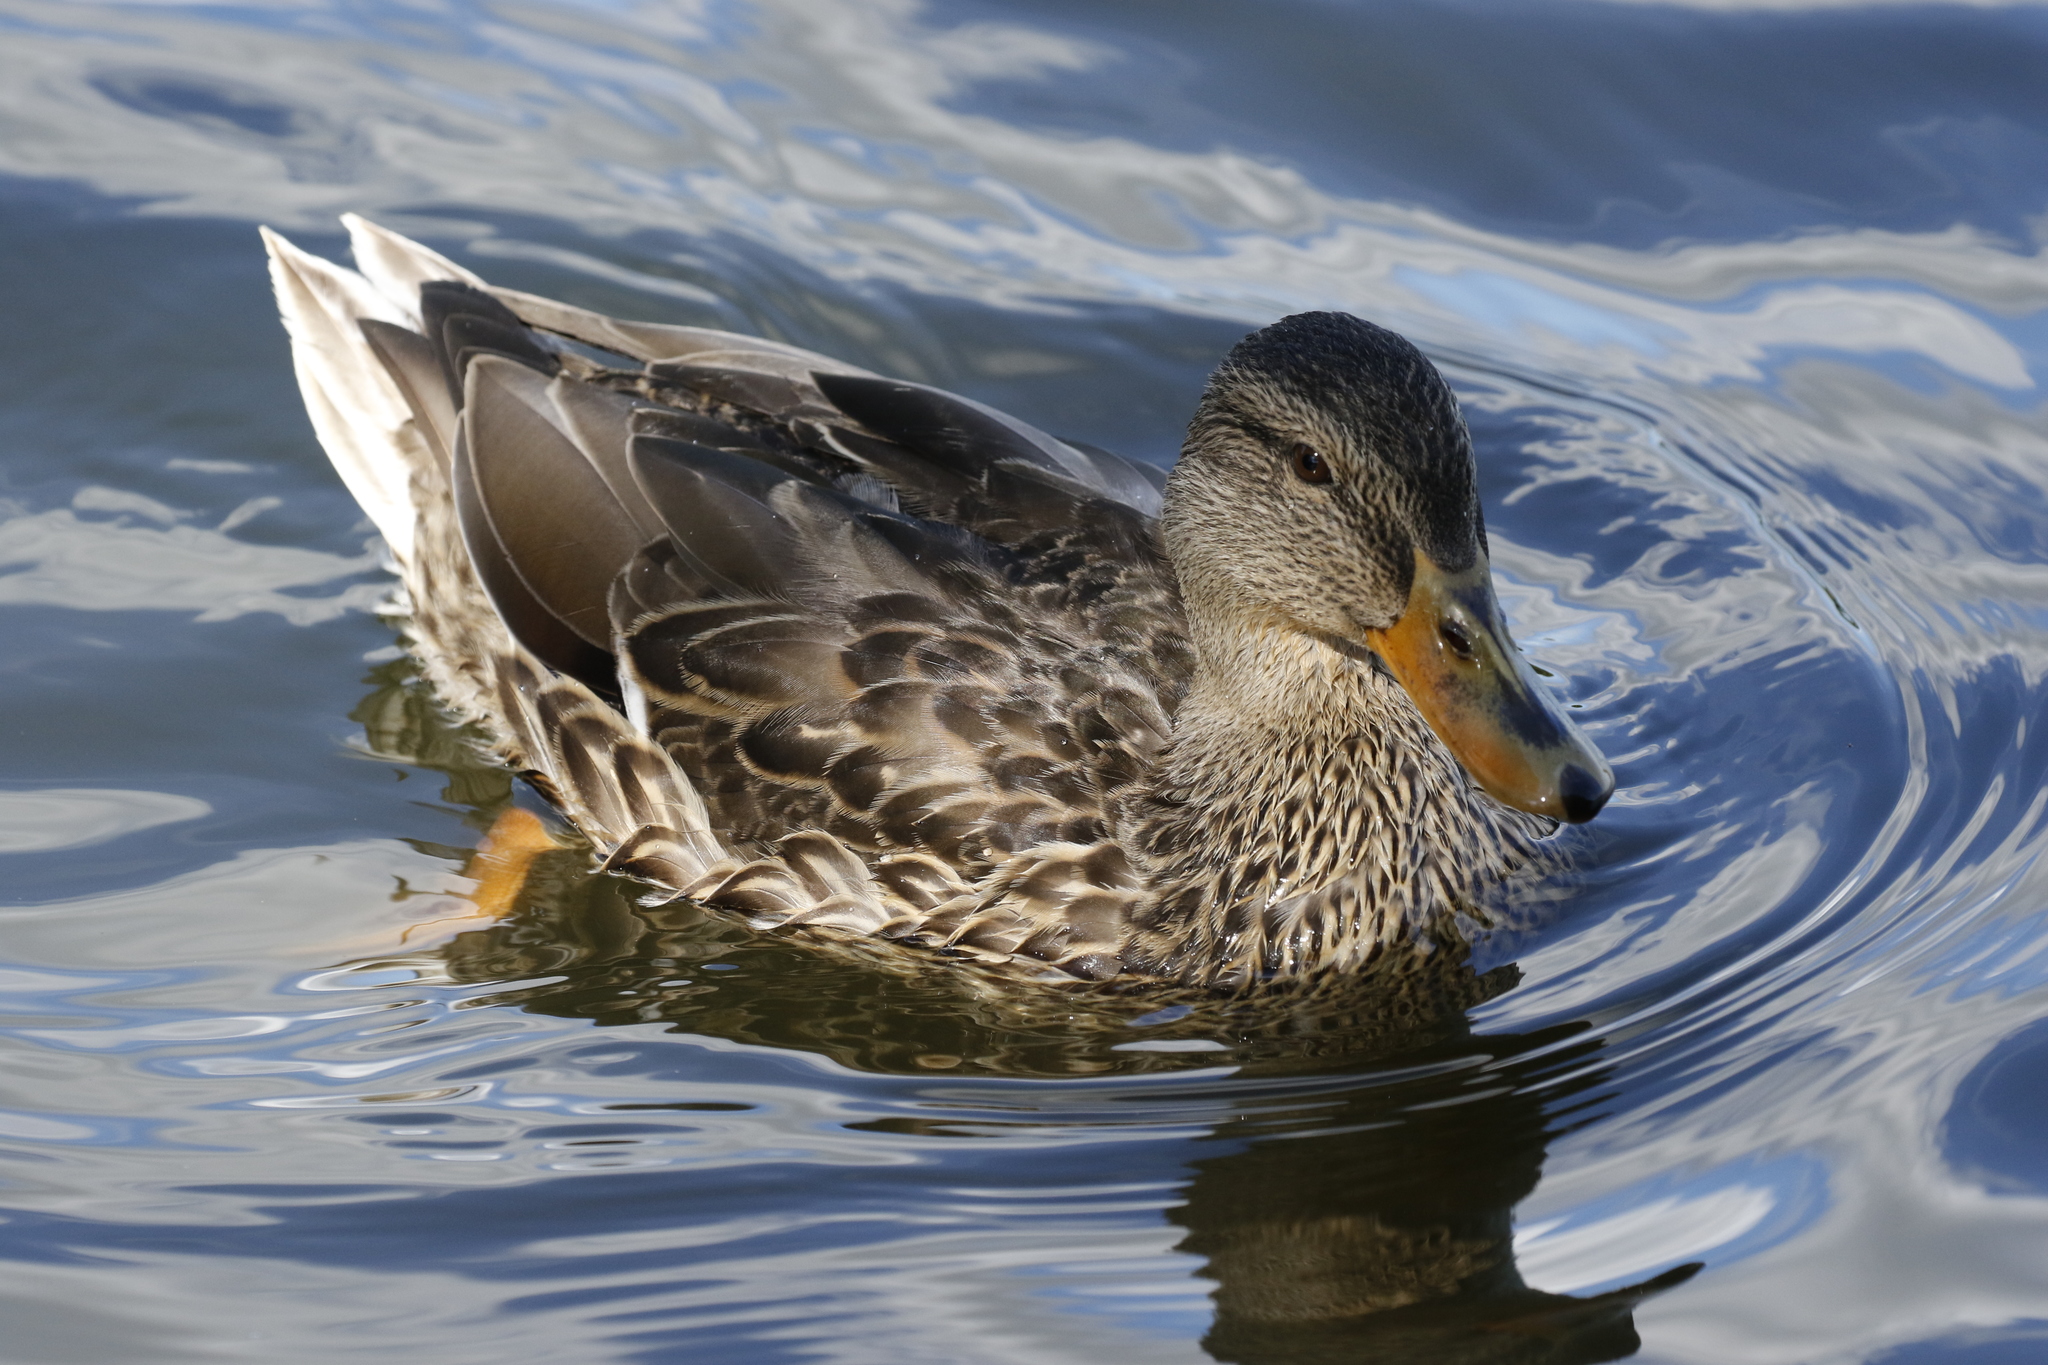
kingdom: Animalia
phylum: Chordata
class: Aves
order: Anseriformes
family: Anatidae
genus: Anas
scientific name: Anas platyrhynchos
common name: Mallard
